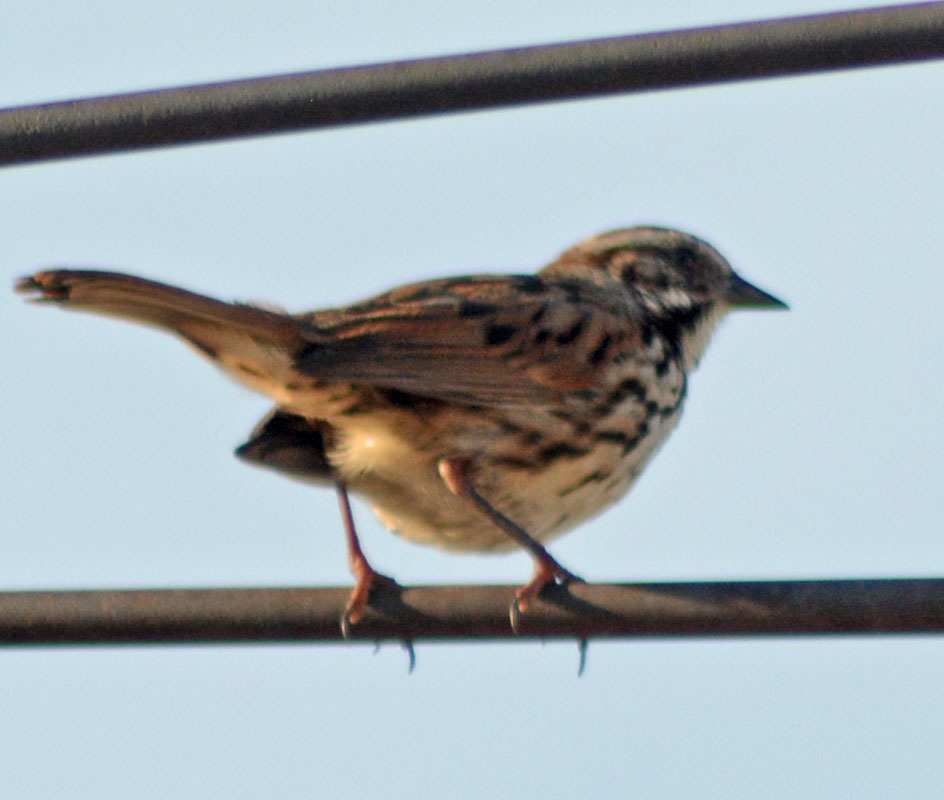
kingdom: Animalia
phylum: Chordata
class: Aves
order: Passeriformes
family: Passerellidae
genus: Melospiza
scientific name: Melospiza melodia
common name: Song sparrow
